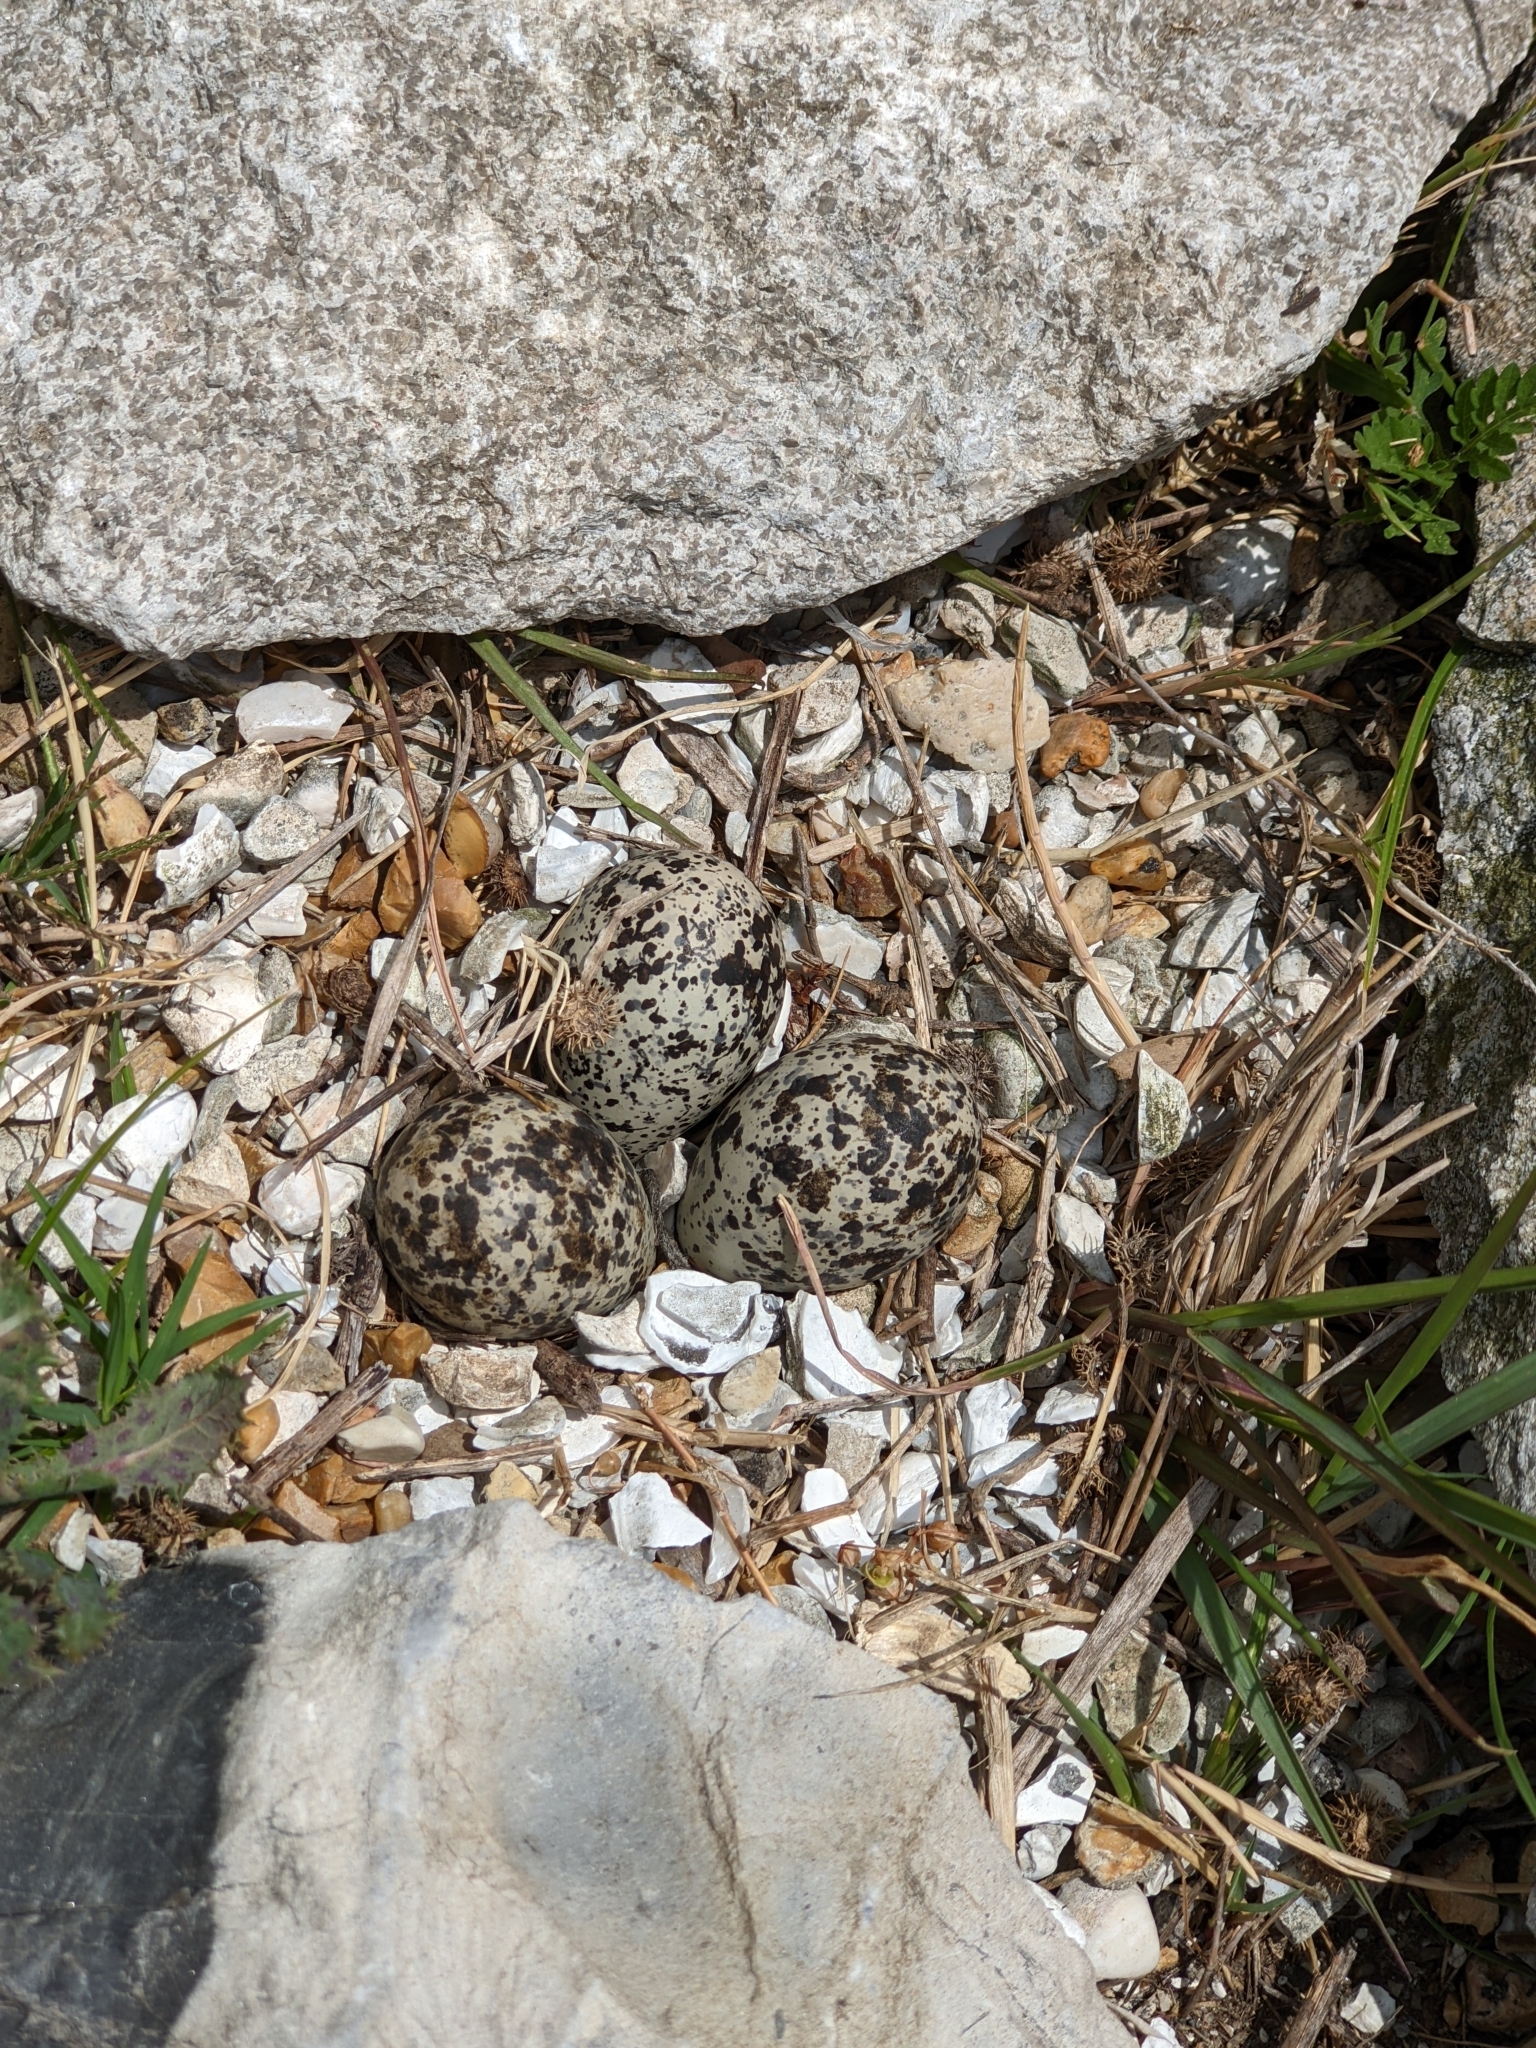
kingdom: Animalia
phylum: Chordata
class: Aves
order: Charadriiformes
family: Charadriidae
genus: Charadrius
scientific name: Charadrius vociferus
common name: Killdeer
